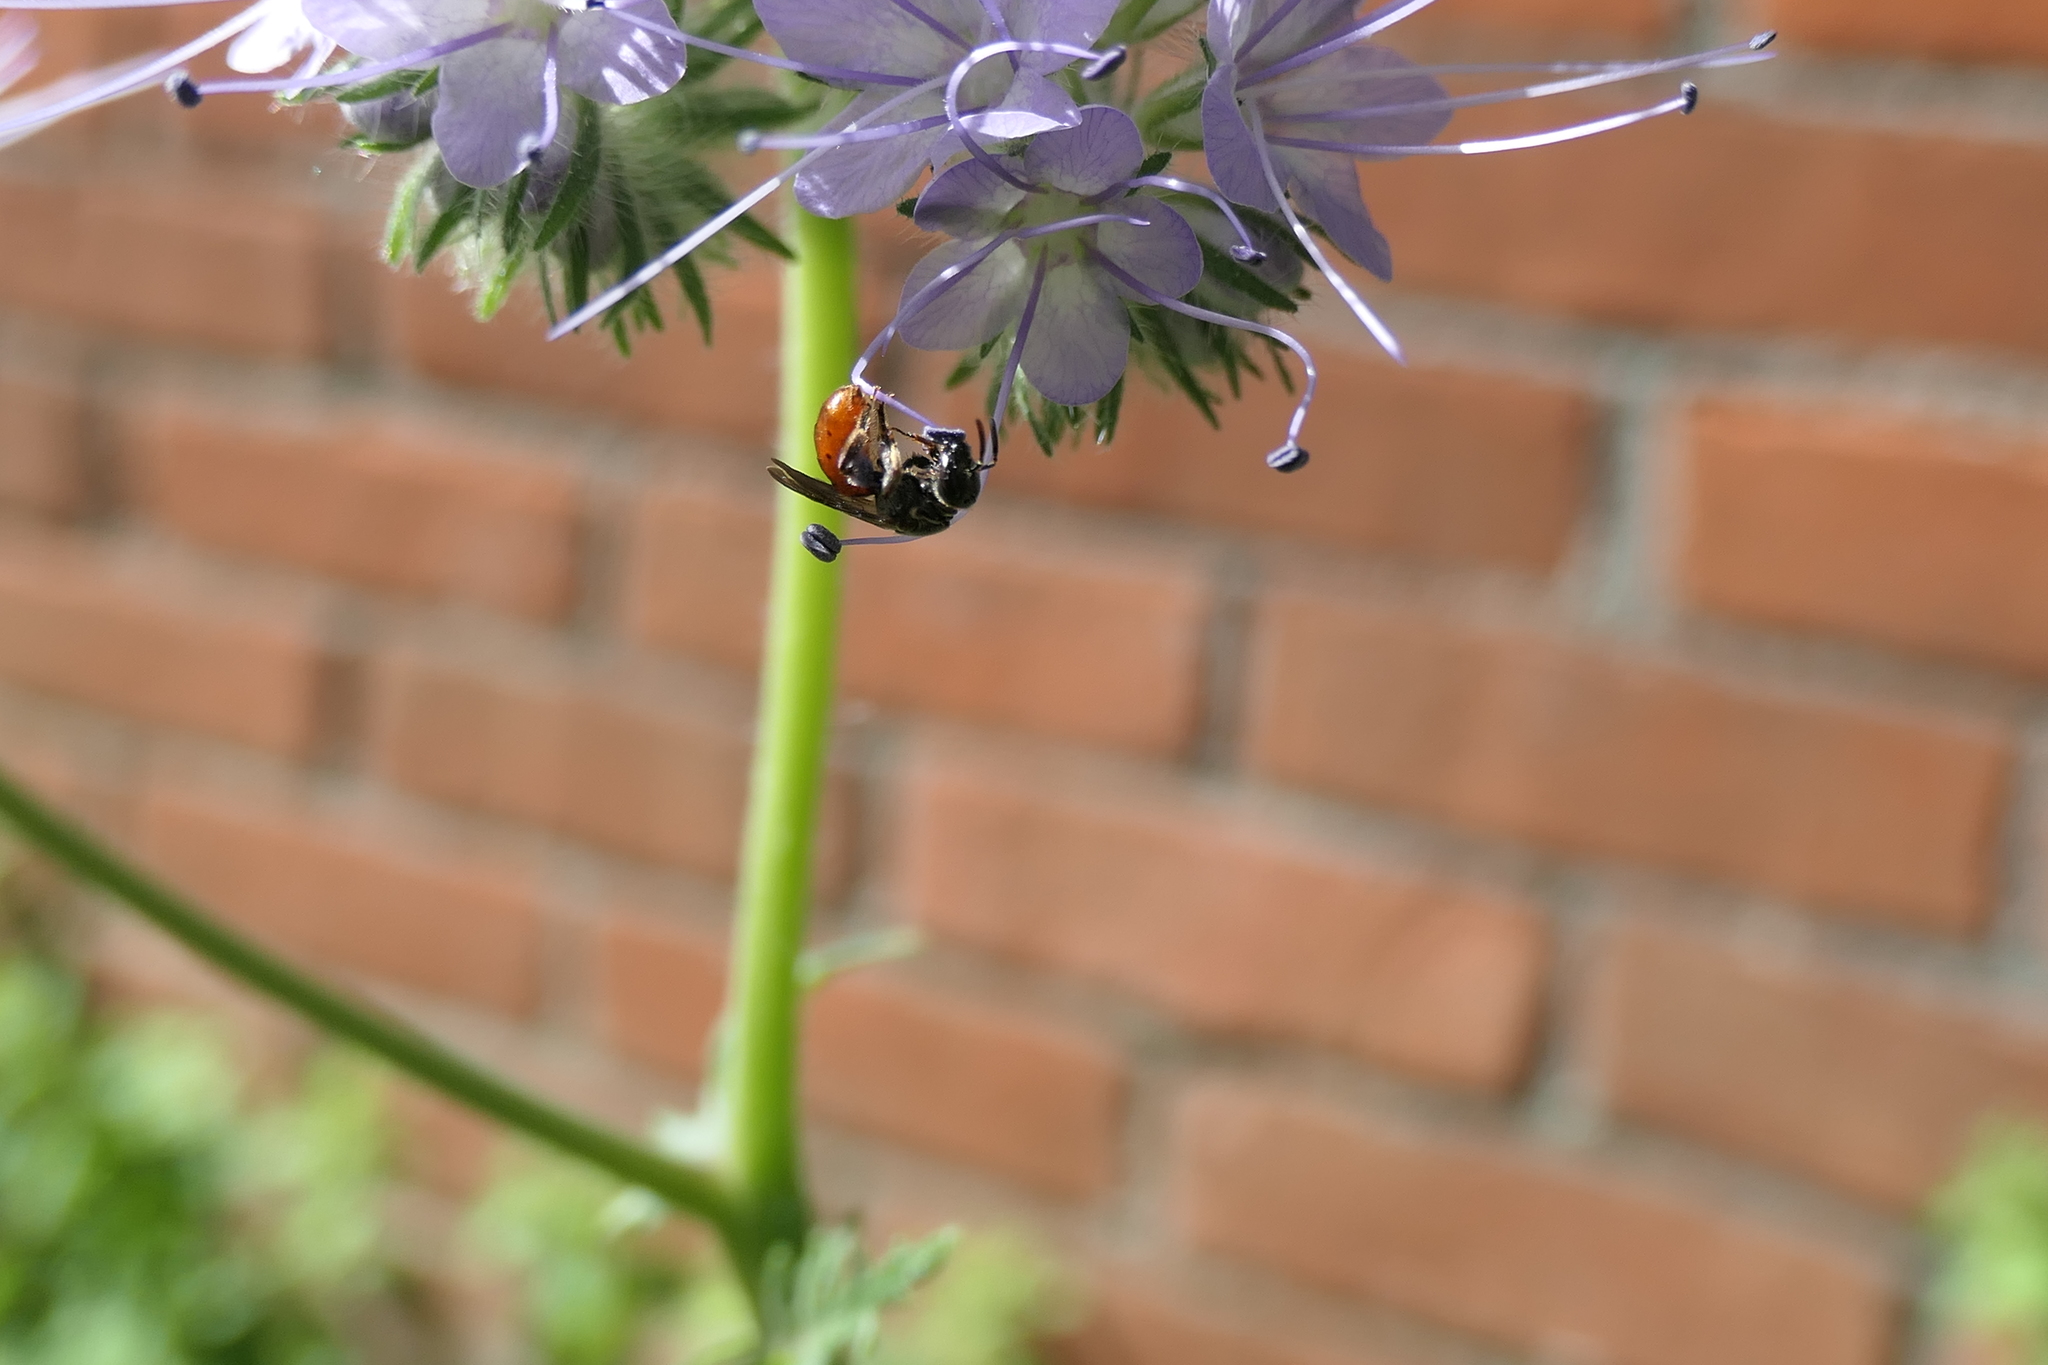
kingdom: Animalia
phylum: Arthropoda
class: Insecta
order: Hymenoptera
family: Halictidae
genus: Lasioglossum
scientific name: Lasioglossum ovaliceps
